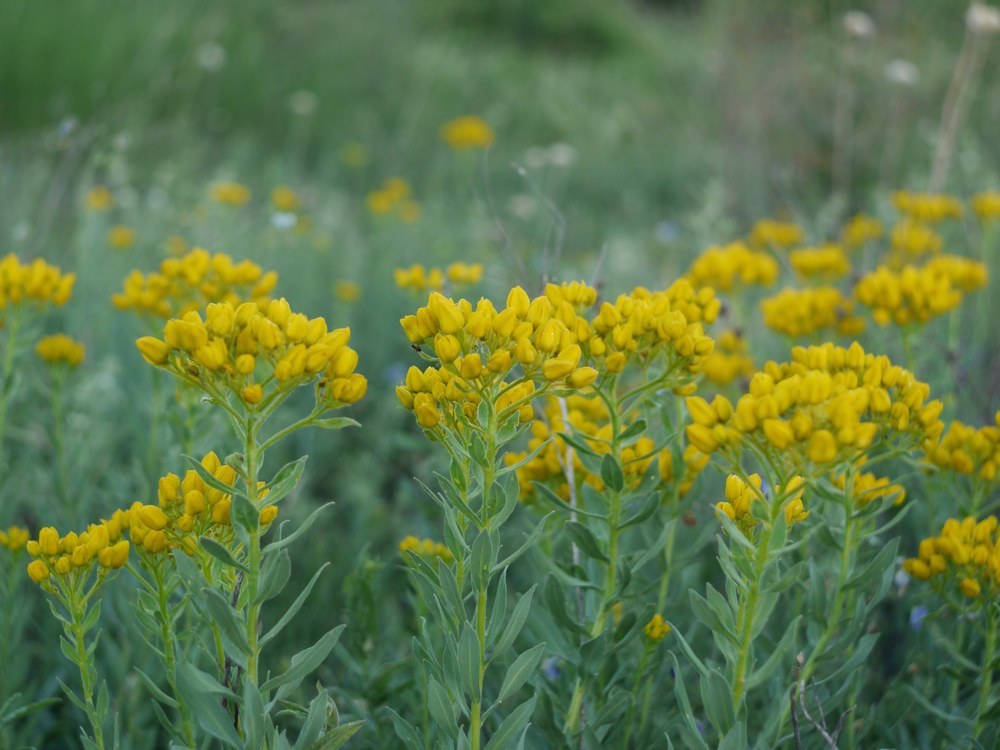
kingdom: Plantae
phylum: Tracheophyta
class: Magnoliopsida
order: Sapindales
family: Rutaceae
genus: Haplophyllum
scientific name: Haplophyllum suaveolens
